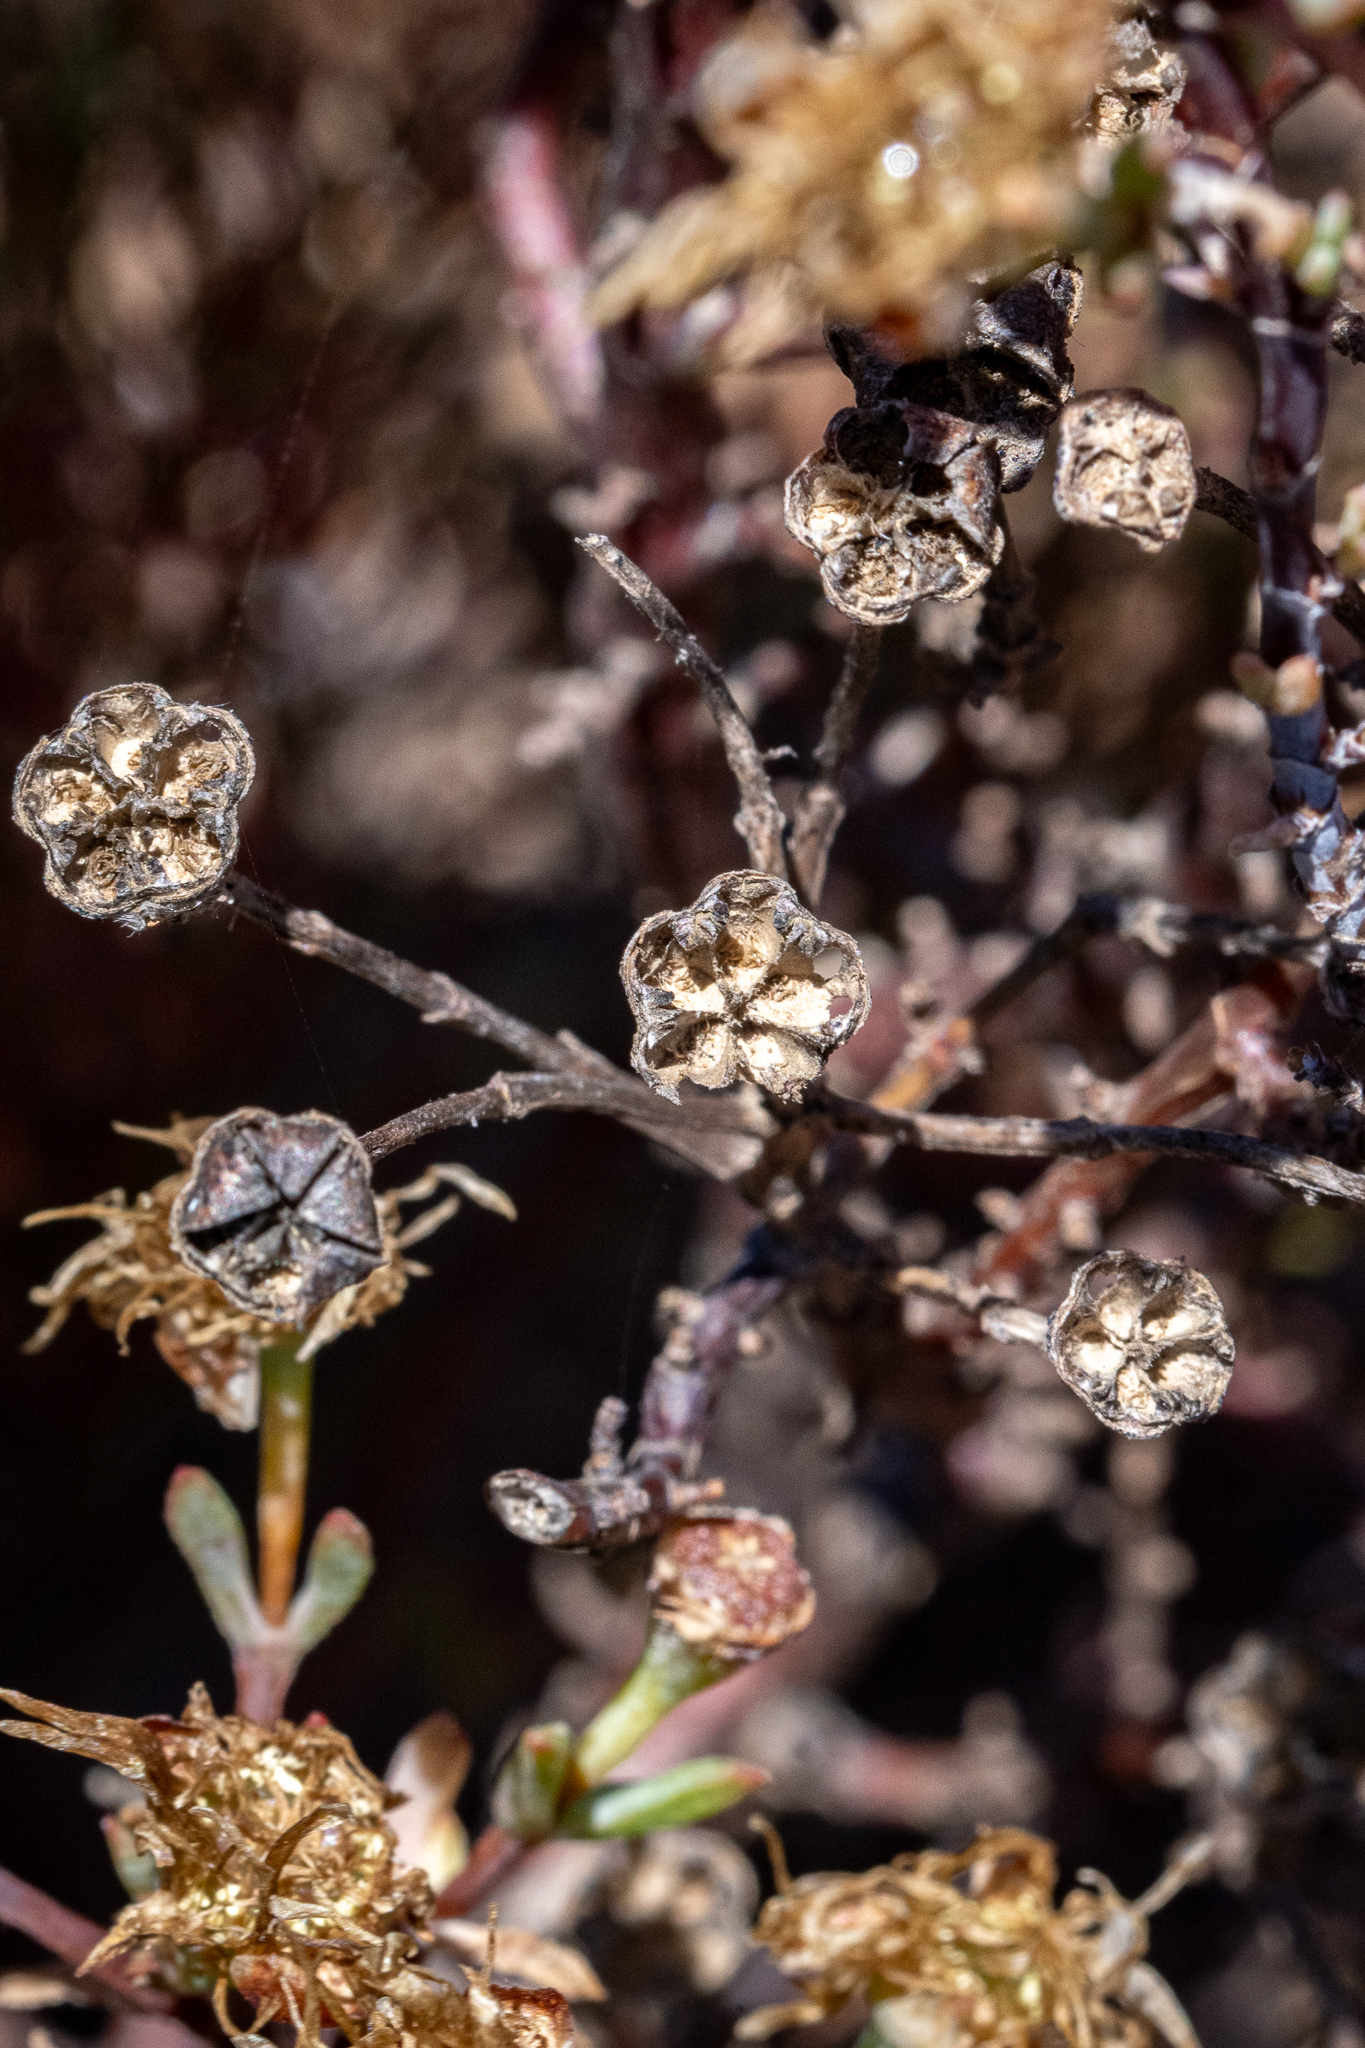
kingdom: Plantae
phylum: Tracheophyta
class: Magnoliopsida
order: Caryophyllales
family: Aizoaceae
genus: Lampranthus
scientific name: Lampranthus emarginatus
